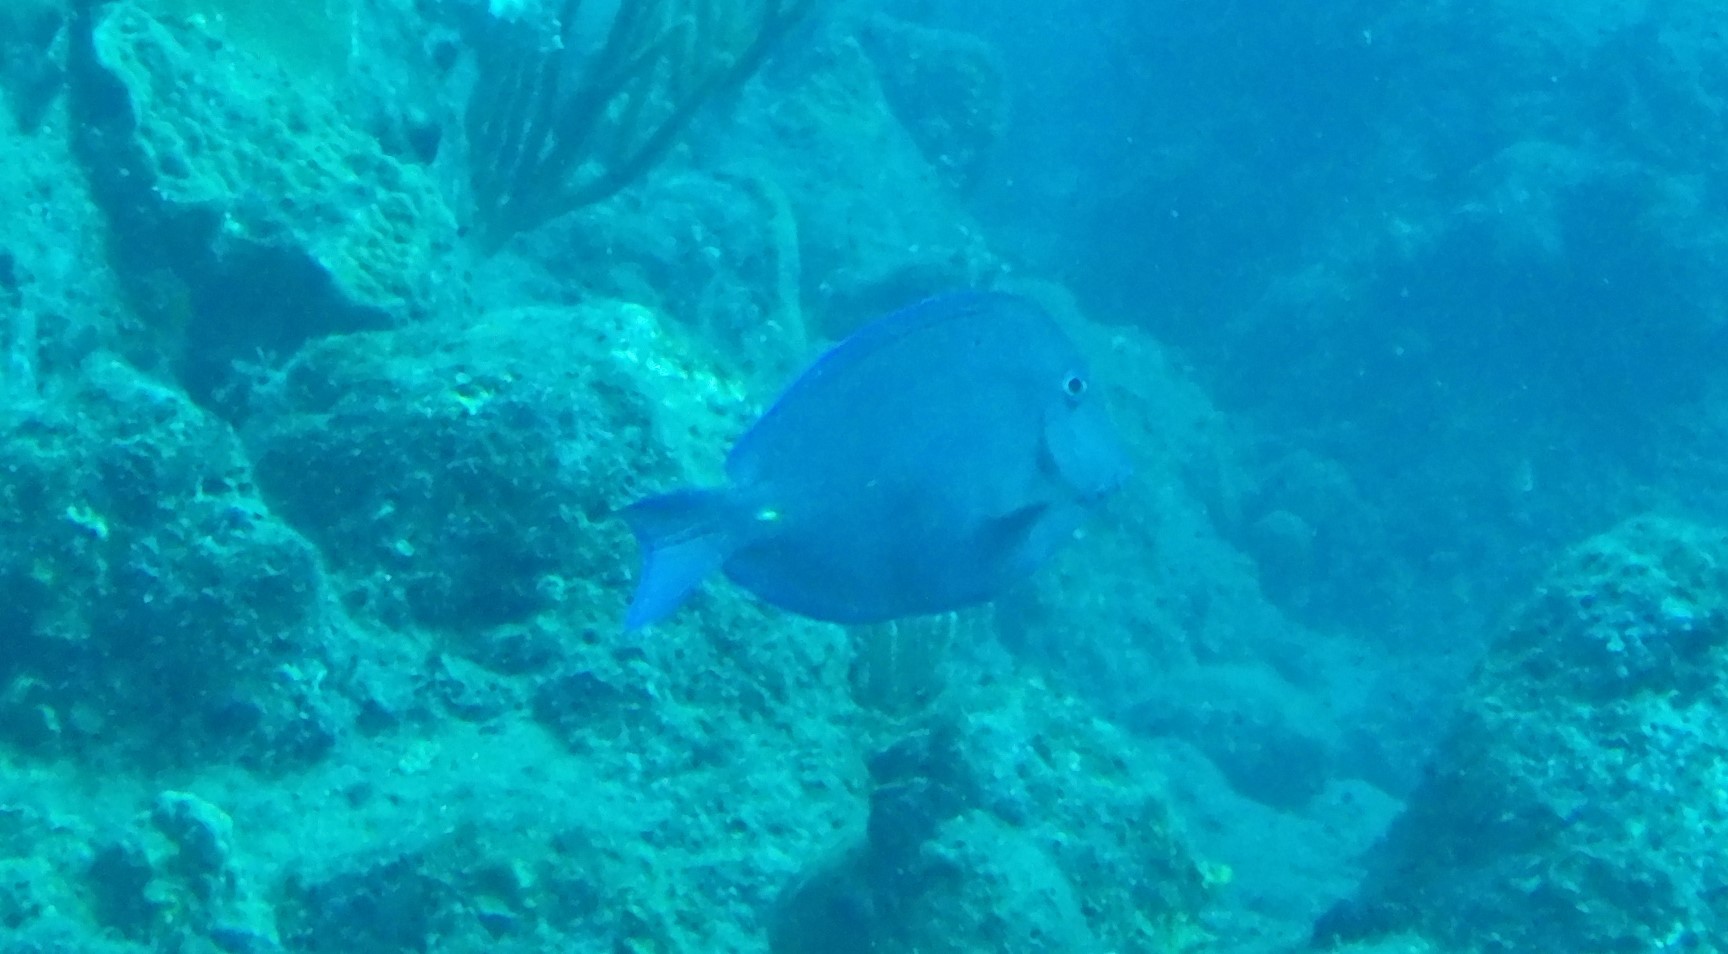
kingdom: Animalia
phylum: Chordata
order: Perciformes
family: Acanthuridae
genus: Acanthurus
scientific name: Acanthurus coeruleus
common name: Blue tang
